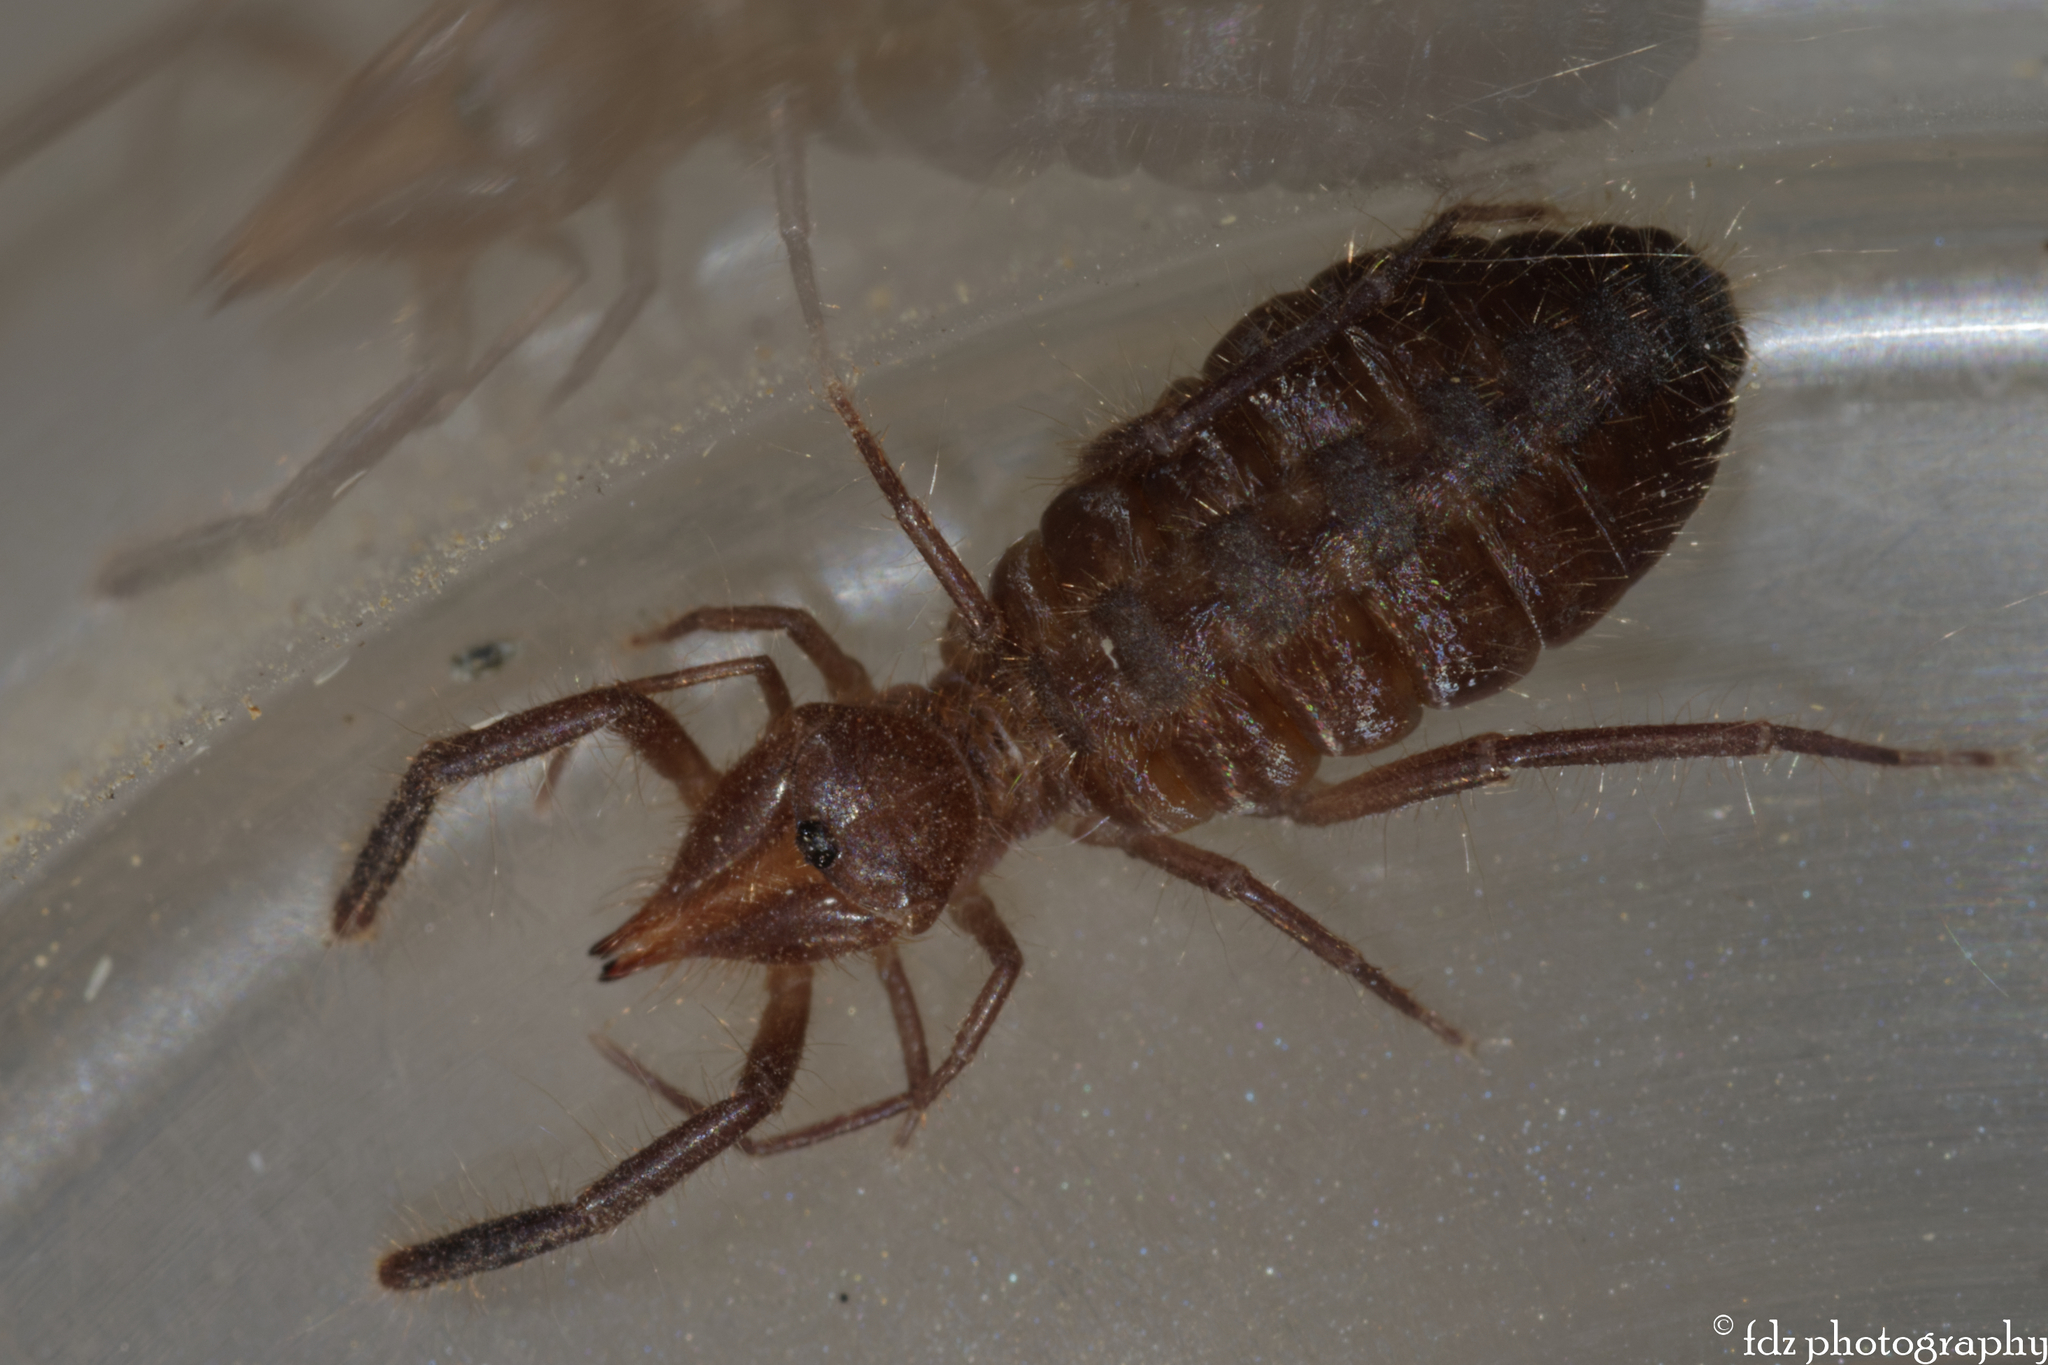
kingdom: Animalia
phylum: Arthropoda
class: Arachnida
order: Solifugae
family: Daesiidae
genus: Gluvia
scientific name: Gluvia dorsalis
